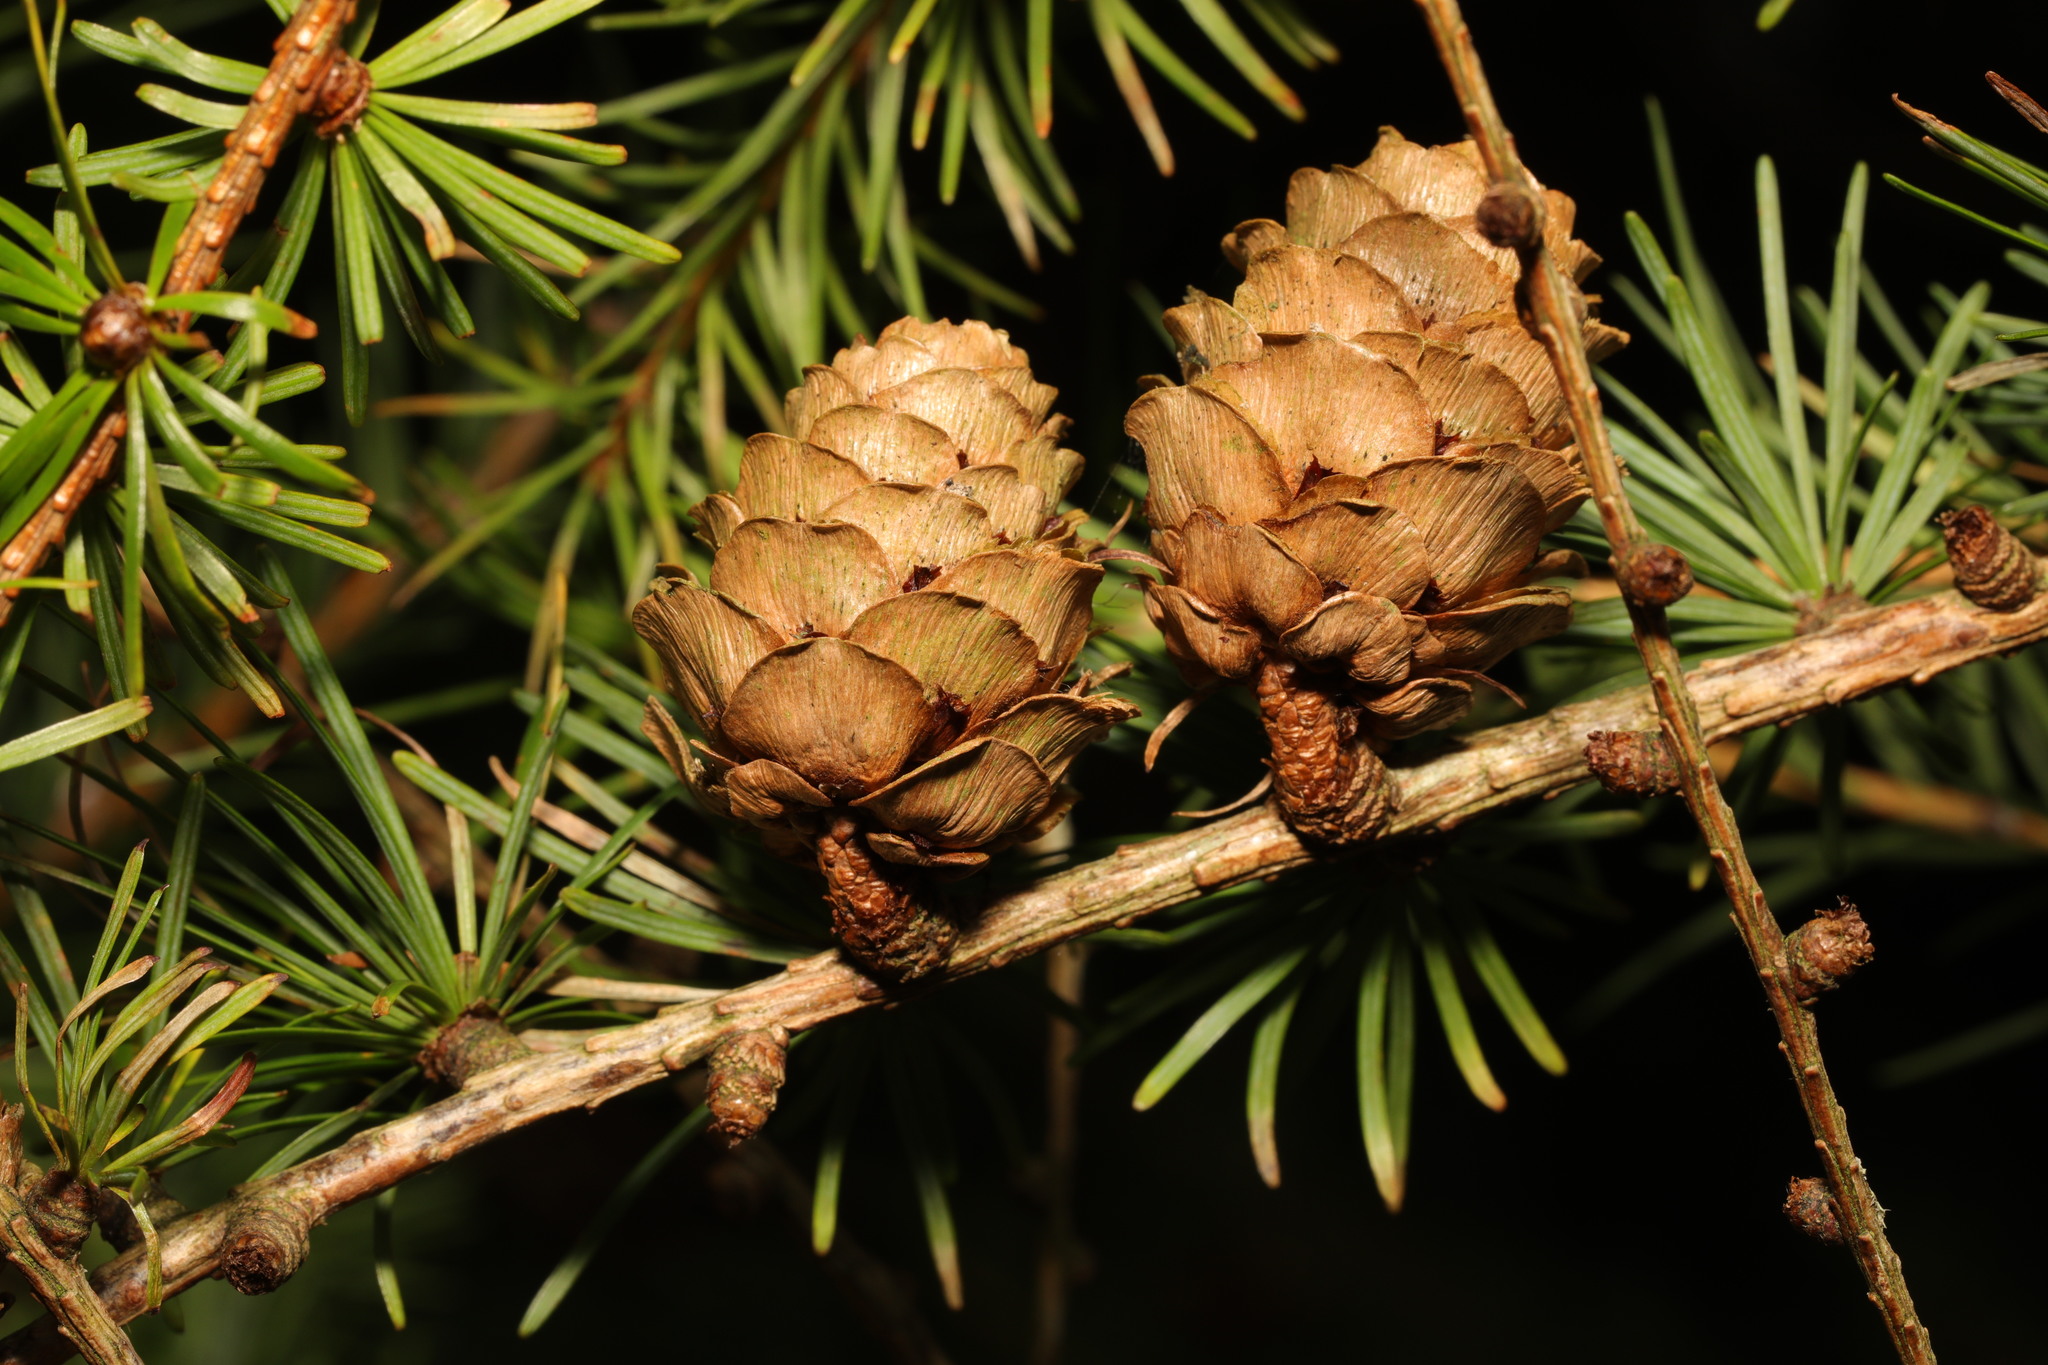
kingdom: Plantae
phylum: Tracheophyta
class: Pinopsida
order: Pinales
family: Pinaceae
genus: Larix
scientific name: Larix decidua
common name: European larch
